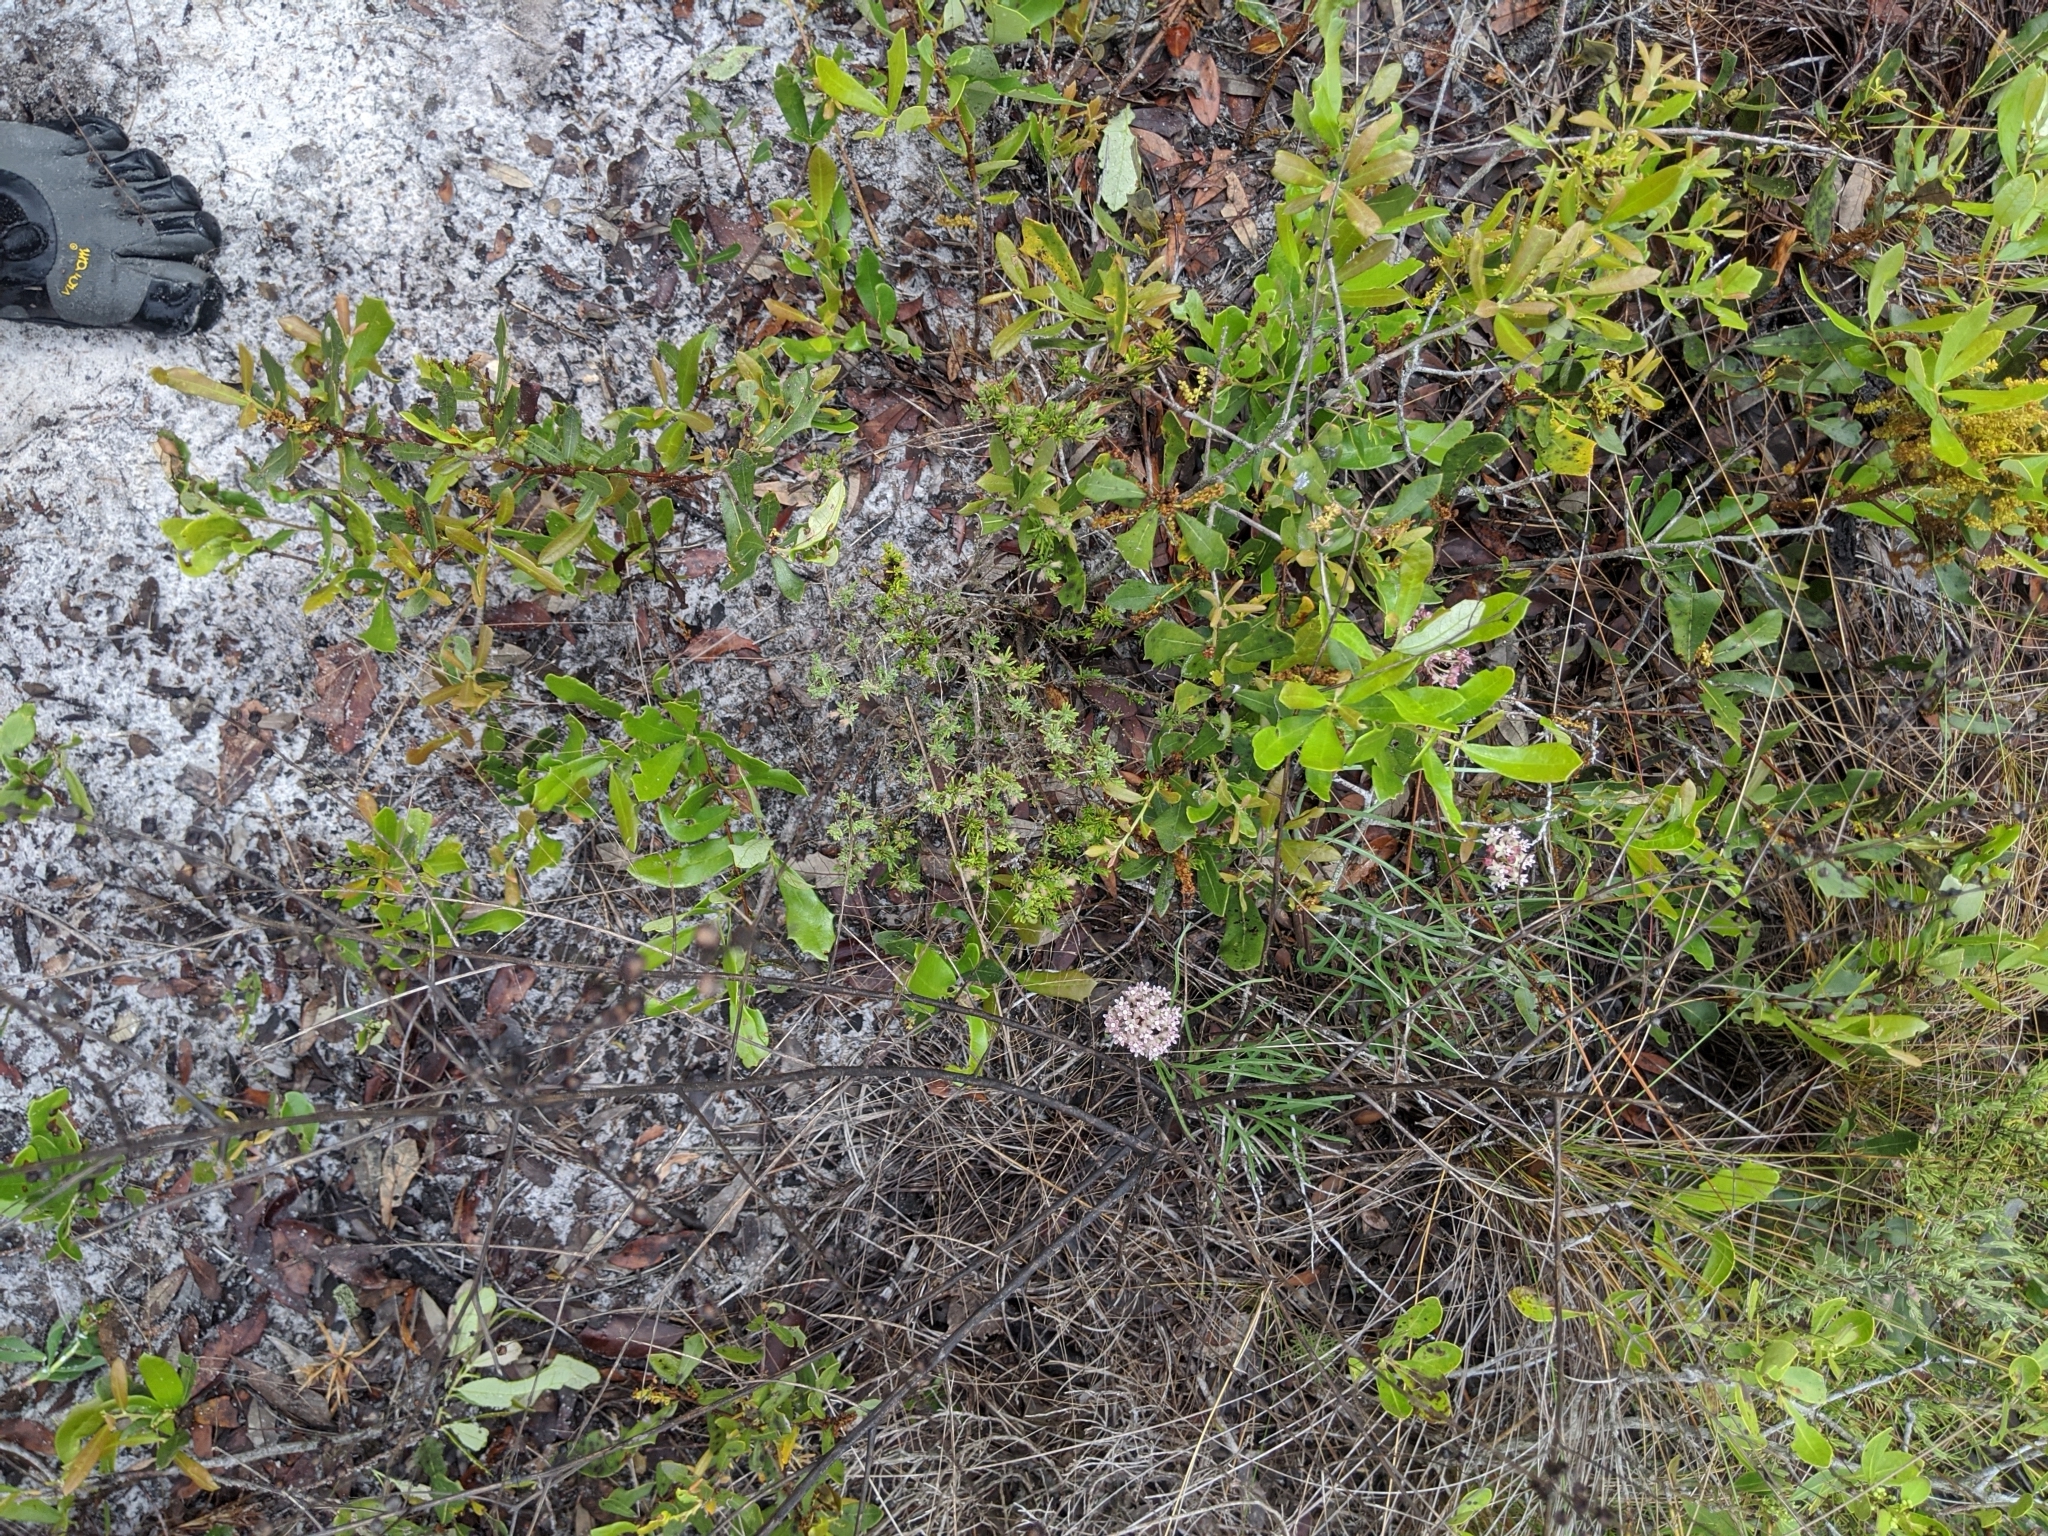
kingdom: Plantae
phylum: Tracheophyta
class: Magnoliopsida
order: Gentianales
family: Apocynaceae
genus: Asclepias
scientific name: Asclepias michauxii
